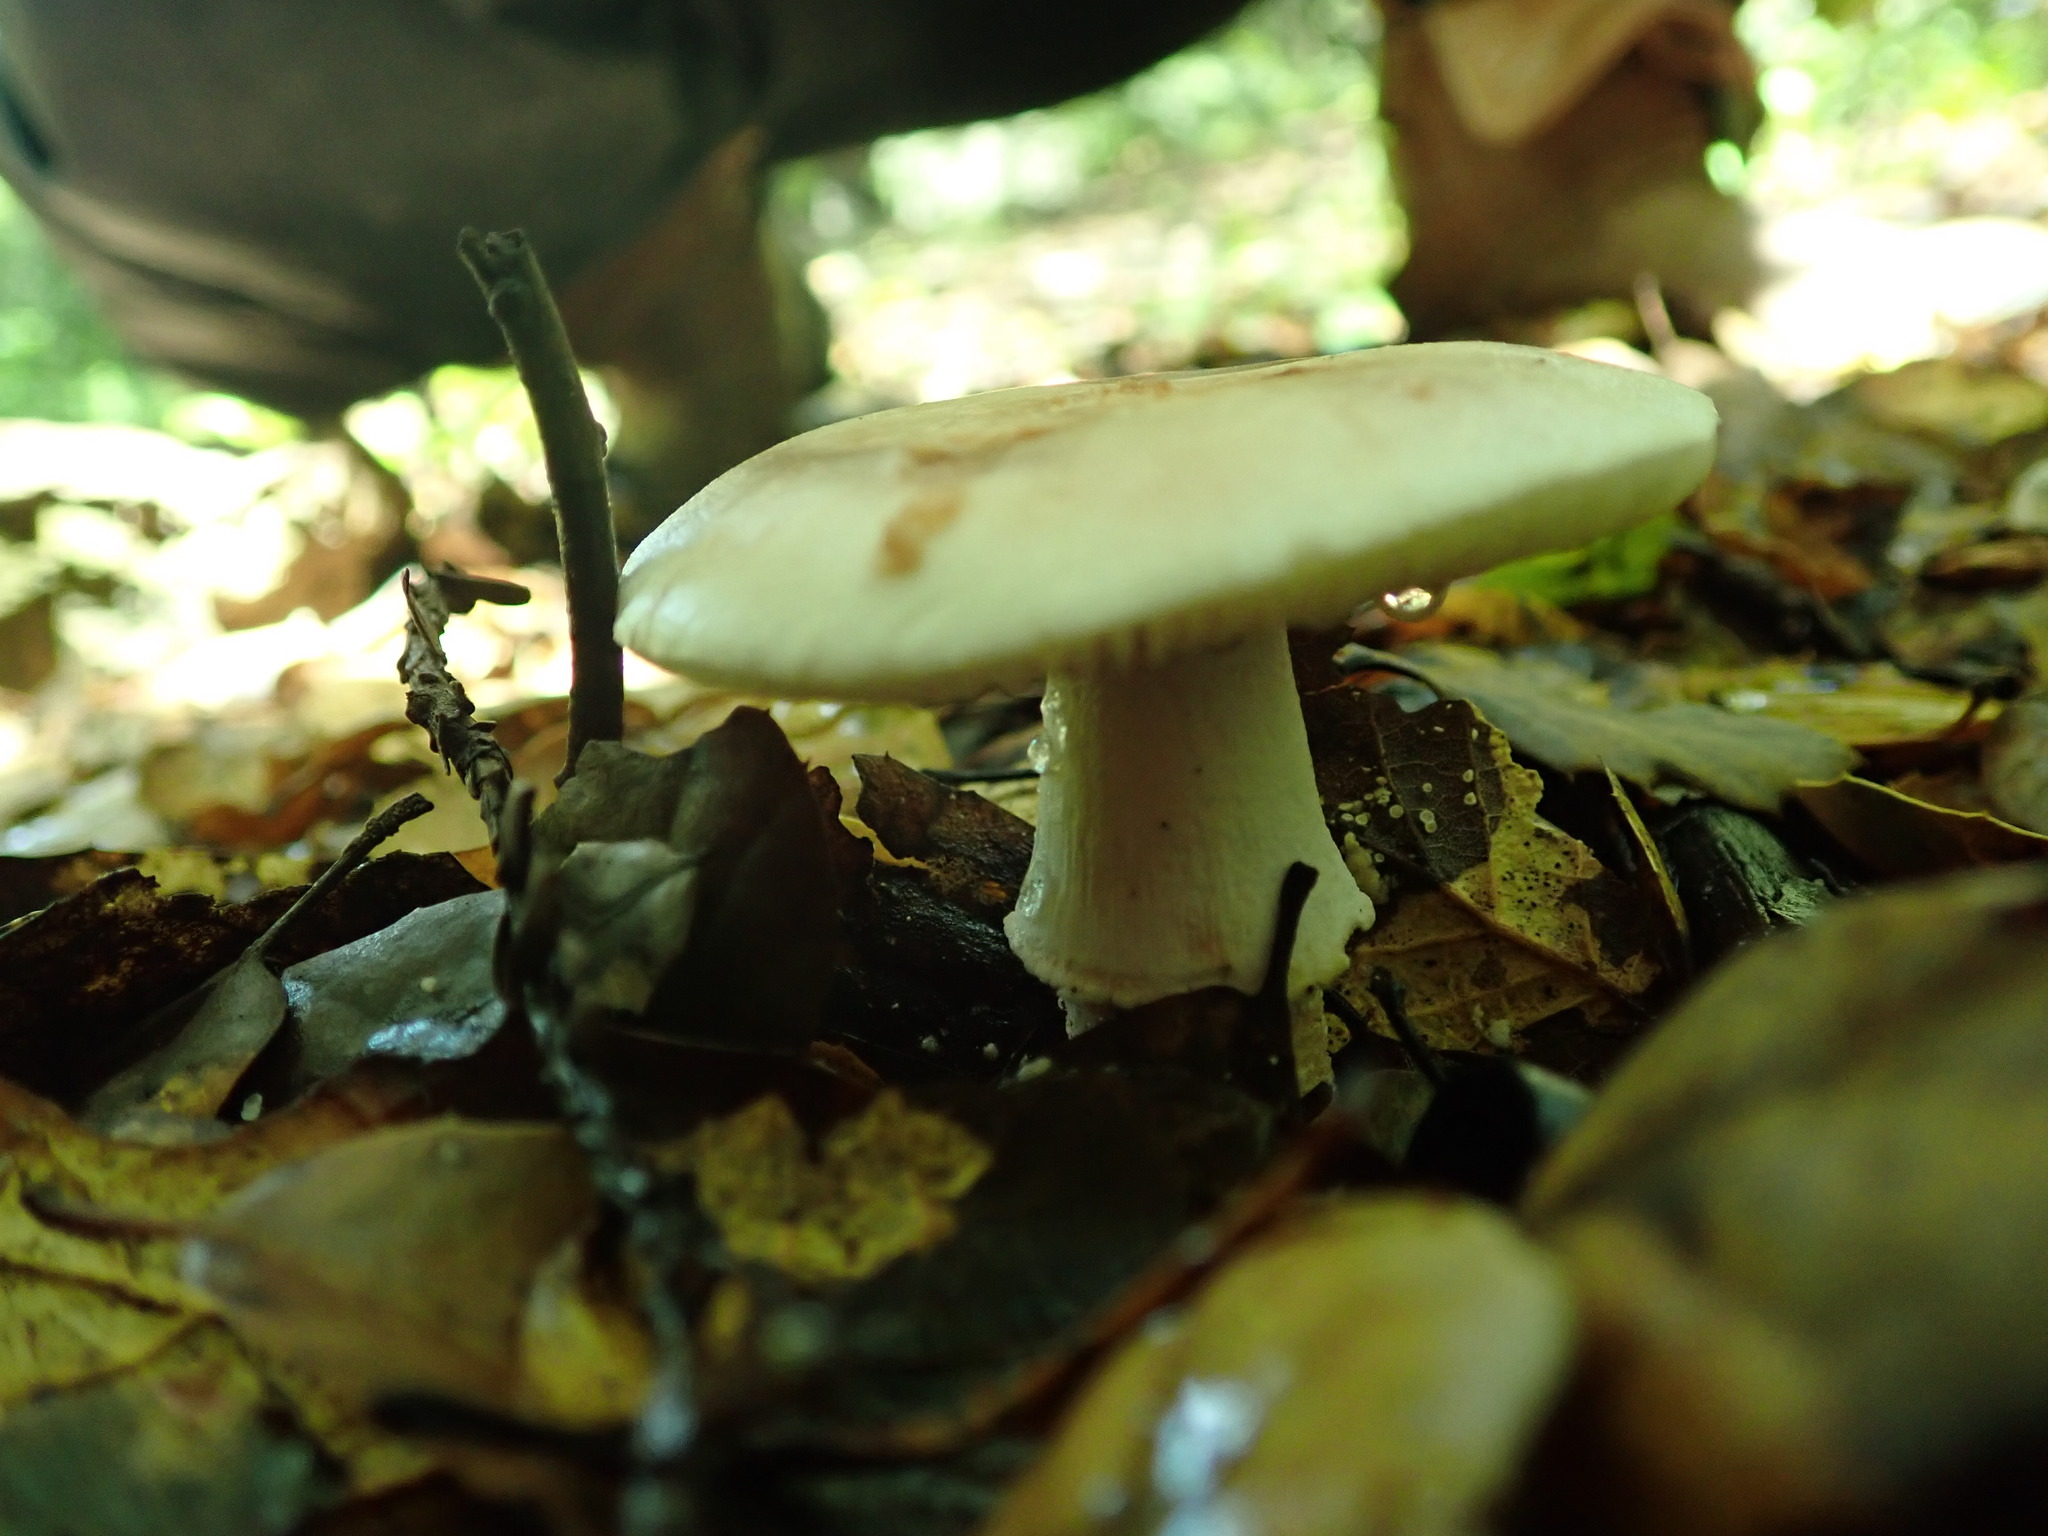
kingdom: Fungi
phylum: Basidiomycota
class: Agaricomycetes
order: Agaricales
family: Amanitaceae
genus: Amanita
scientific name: Amanita novinupta
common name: Blushing bride
